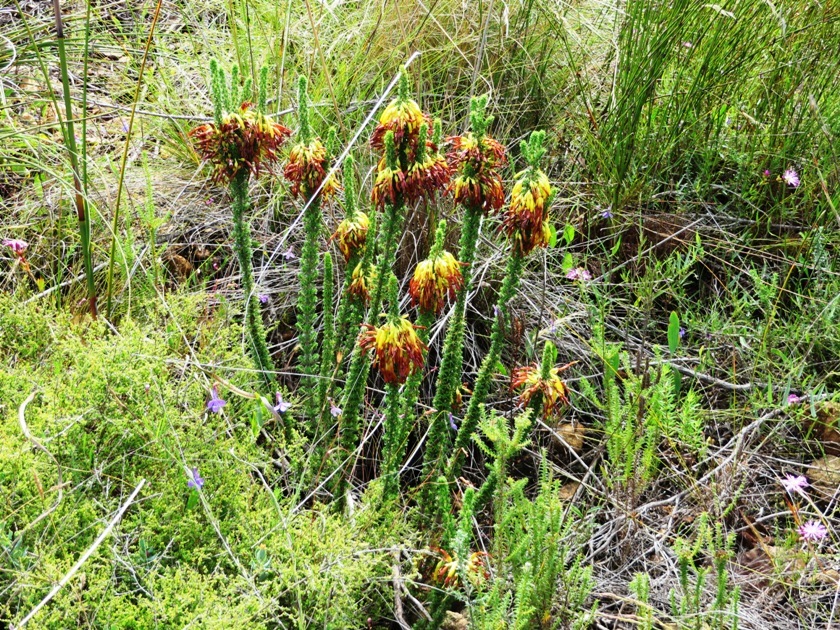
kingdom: Plantae
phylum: Tracheophyta
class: Magnoliopsida
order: Ericales
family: Ericaceae
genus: Erica
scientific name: Erica coccinea
